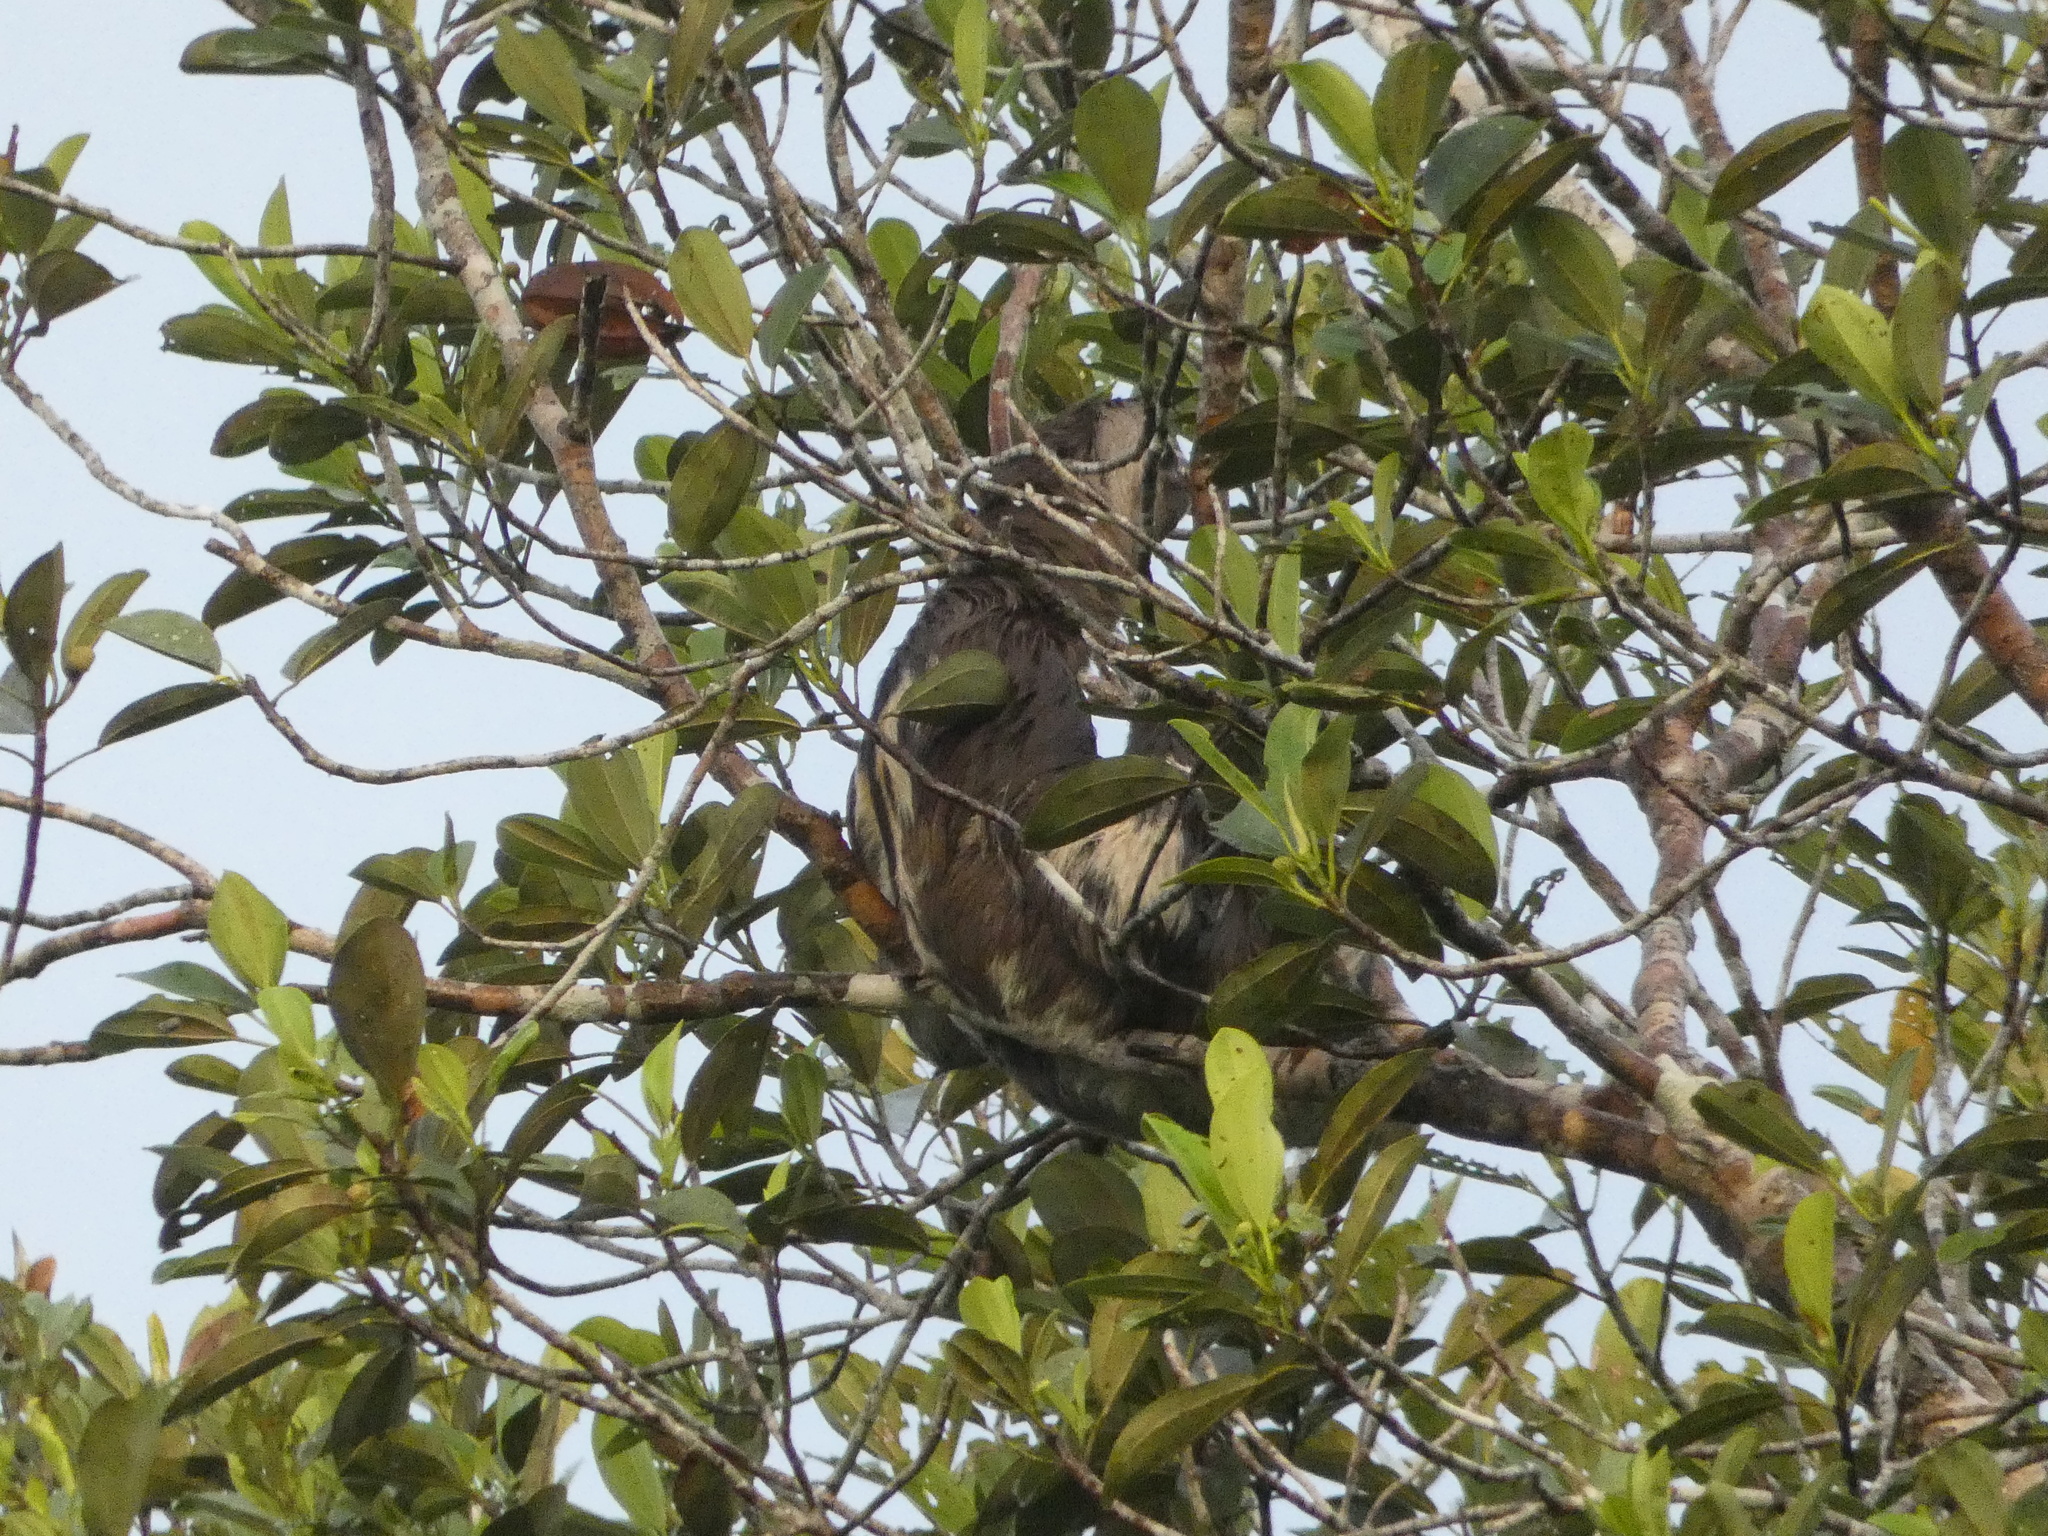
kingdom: Animalia
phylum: Chordata
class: Mammalia
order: Pilosa
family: Bradypodidae
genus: Bradypus
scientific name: Bradypus variegatus
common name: Brown-throated three-toed sloth
